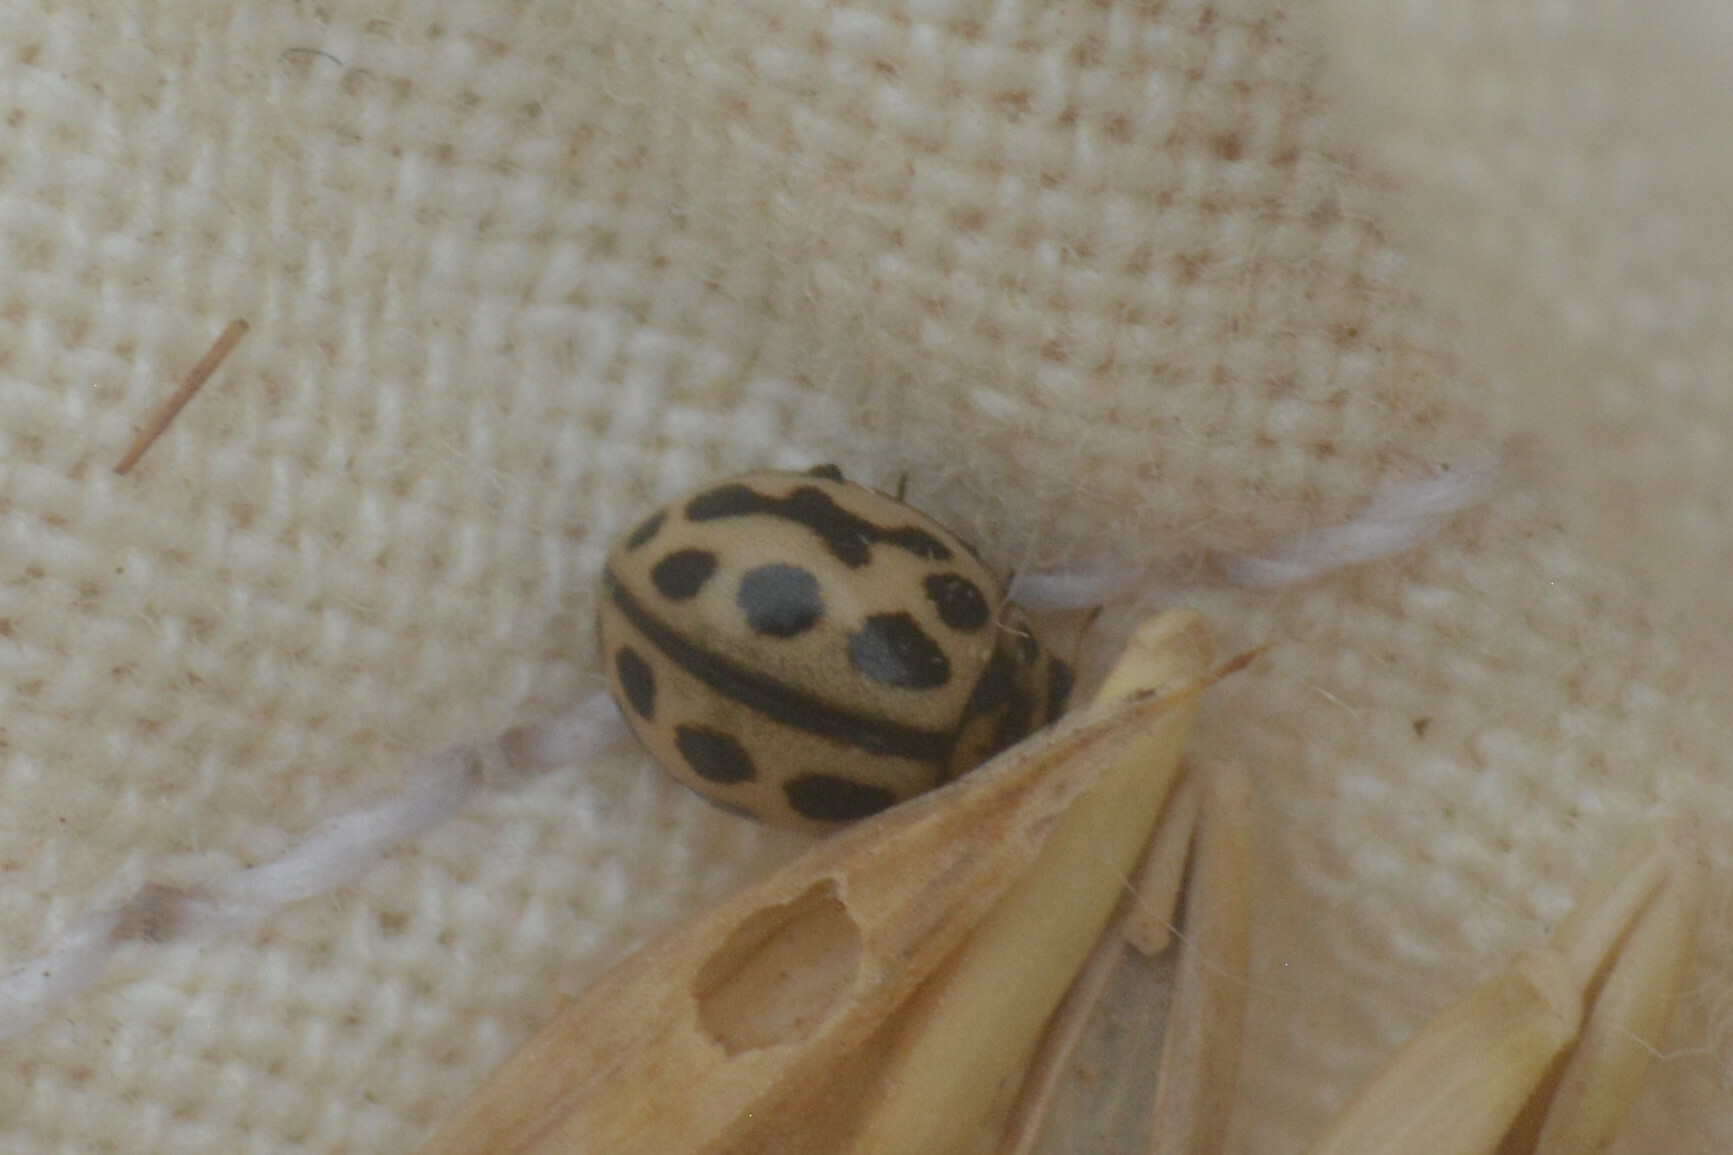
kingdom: Animalia
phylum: Arthropoda
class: Insecta
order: Coleoptera
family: Coccinellidae
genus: Tytthaspis
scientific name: Tytthaspis sedecimpunctata
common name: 16-spot ladybird
